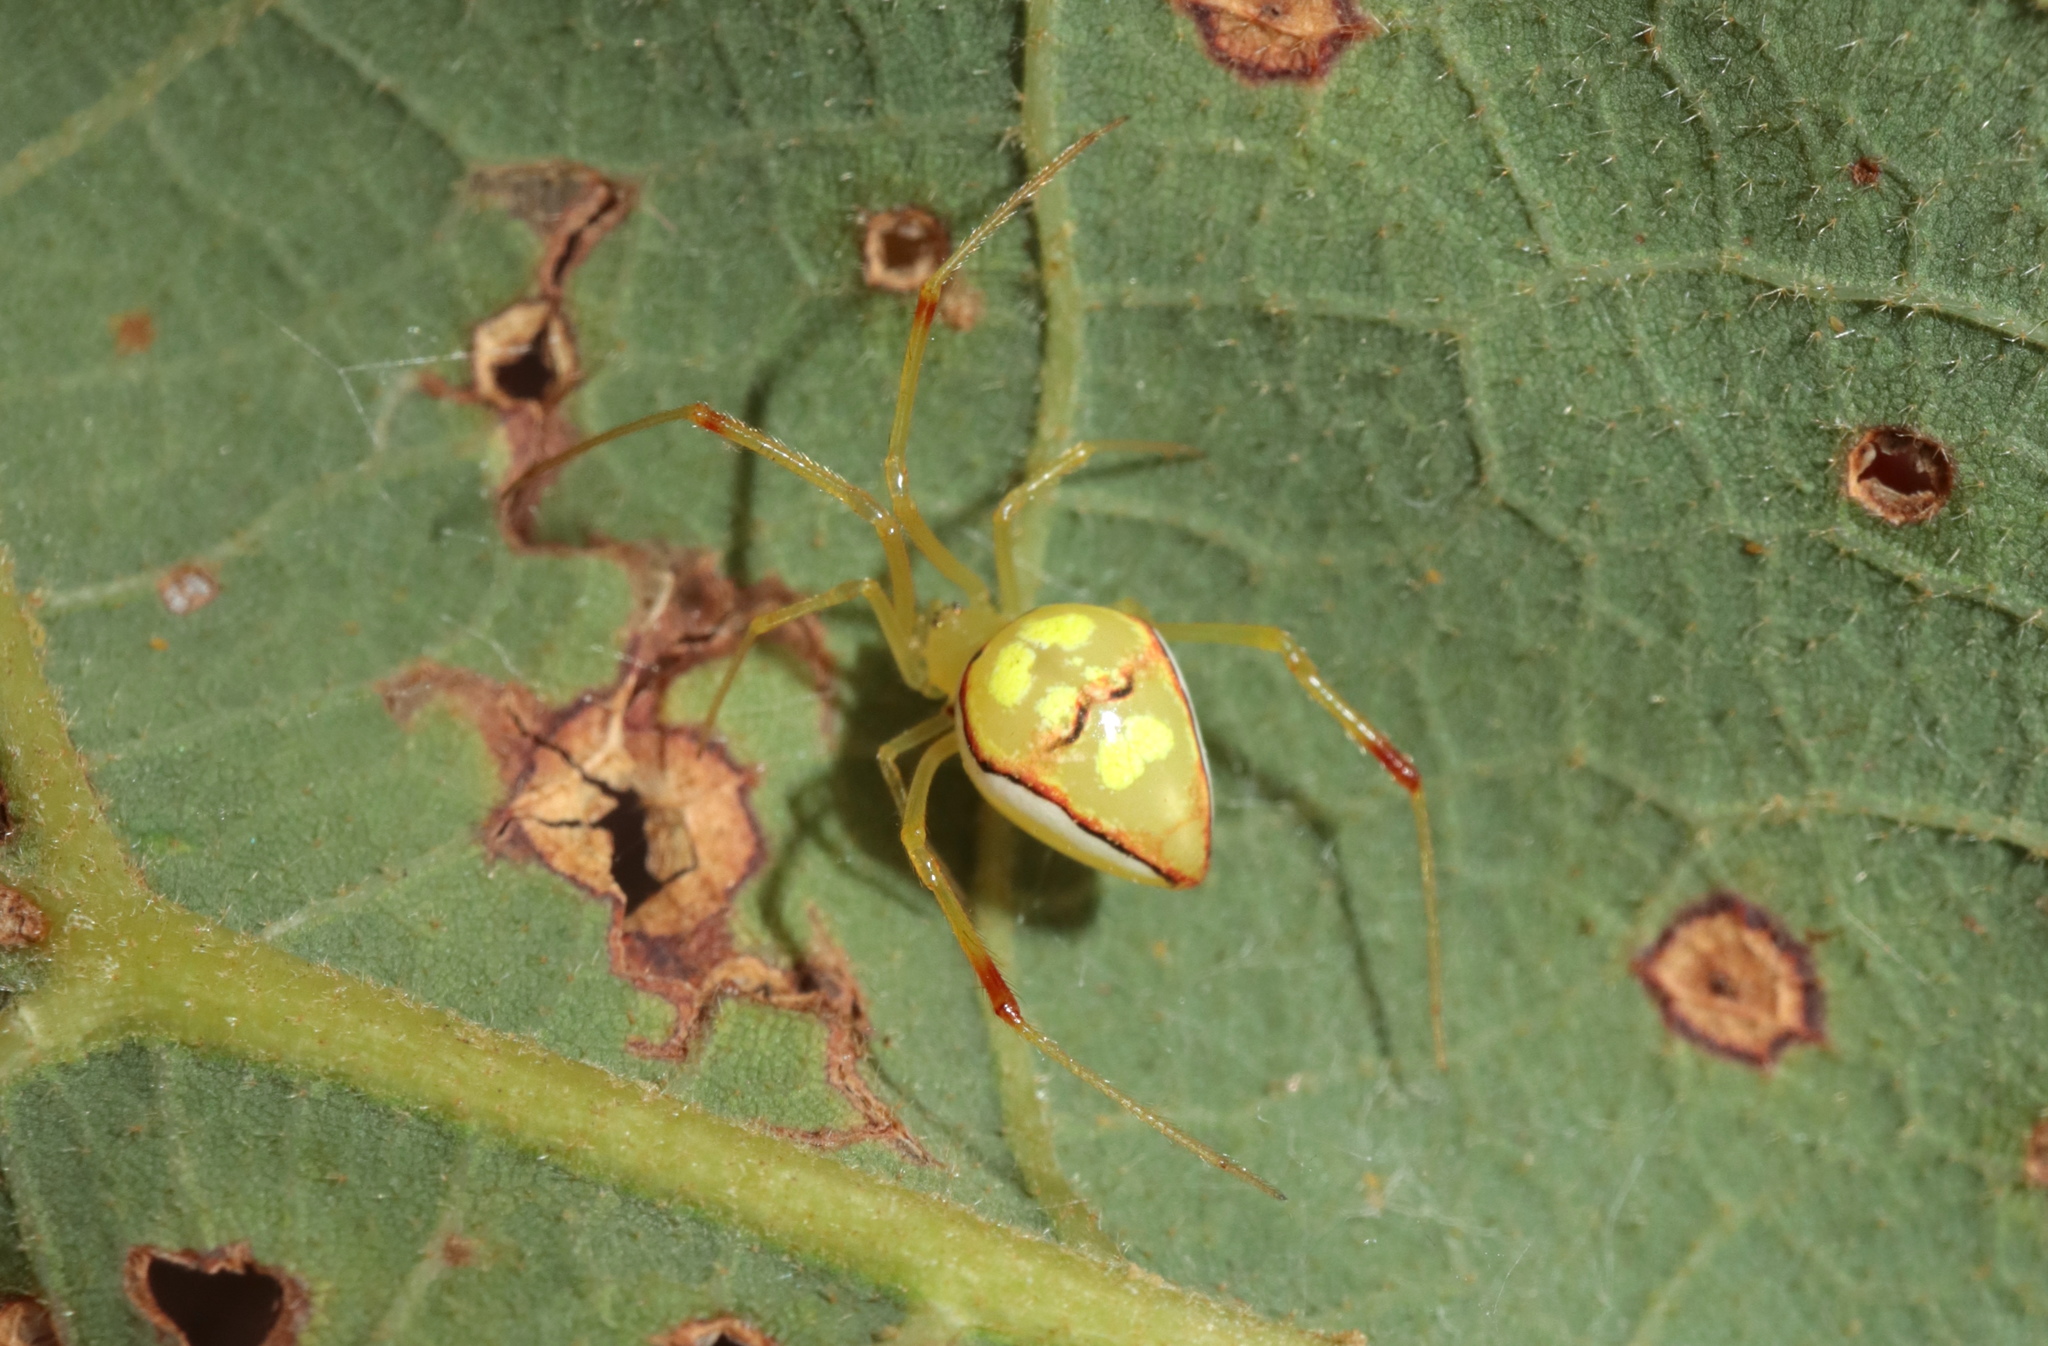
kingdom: Animalia
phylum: Arthropoda
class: Arachnida
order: Araneae
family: Theridiidae
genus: Spintharus
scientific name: Spintharus flavidus
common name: Cobweb spiders
